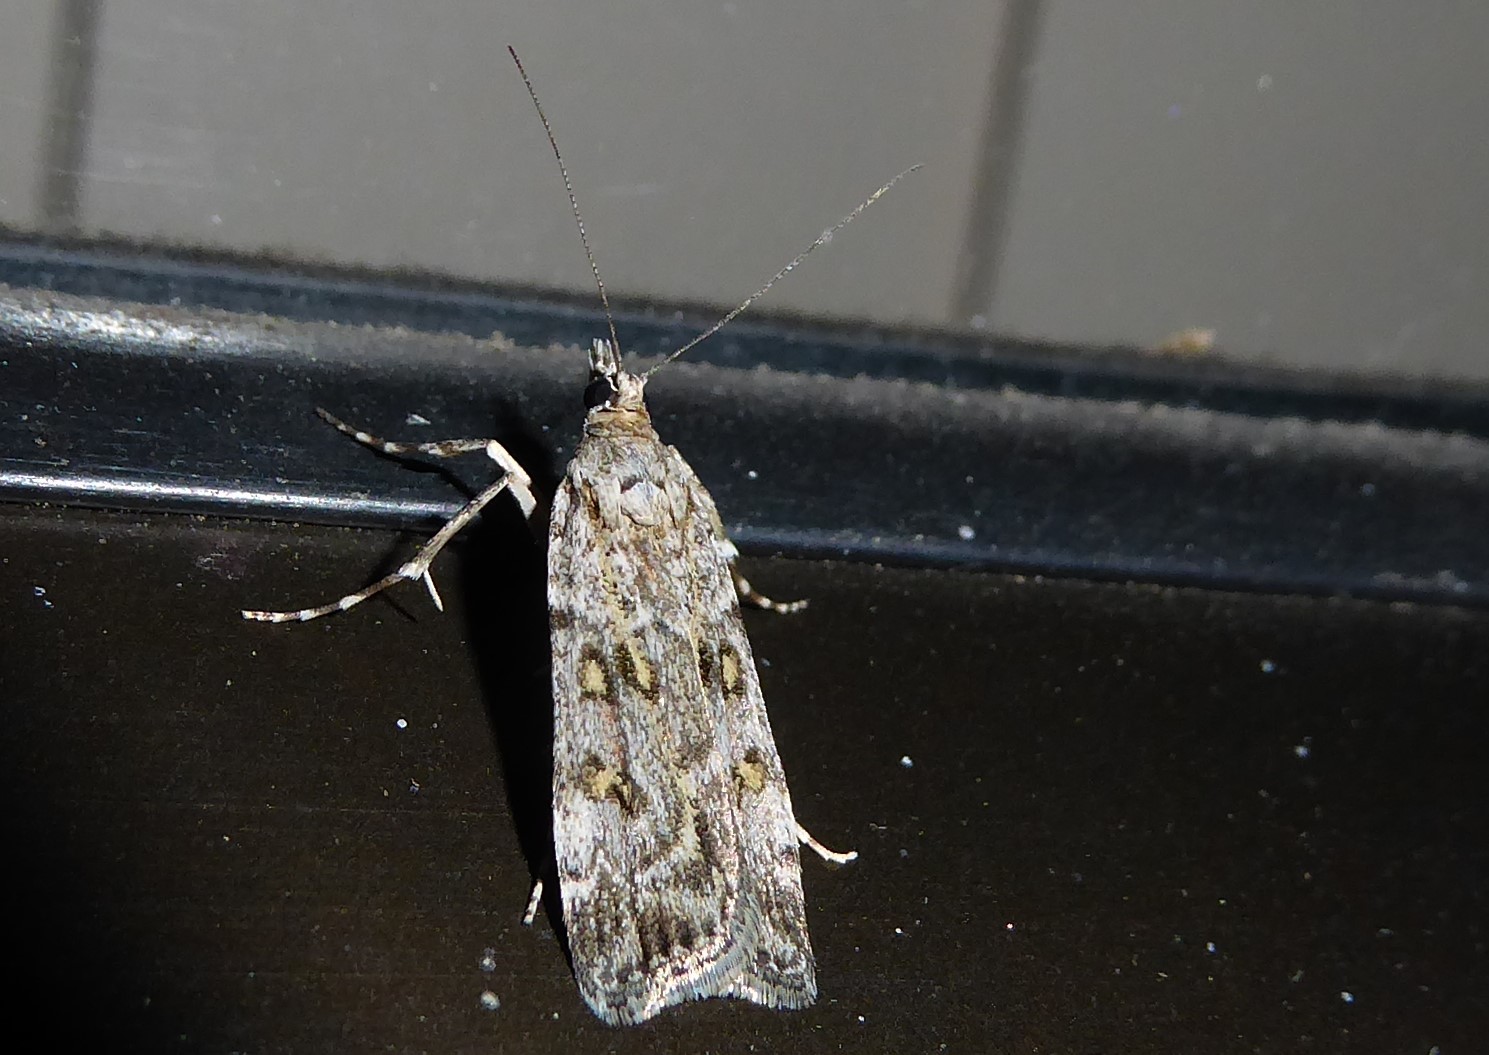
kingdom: Animalia
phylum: Arthropoda
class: Insecta
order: Lepidoptera
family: Crambidae
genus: Eudonia
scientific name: Eudonia diphtheralis
